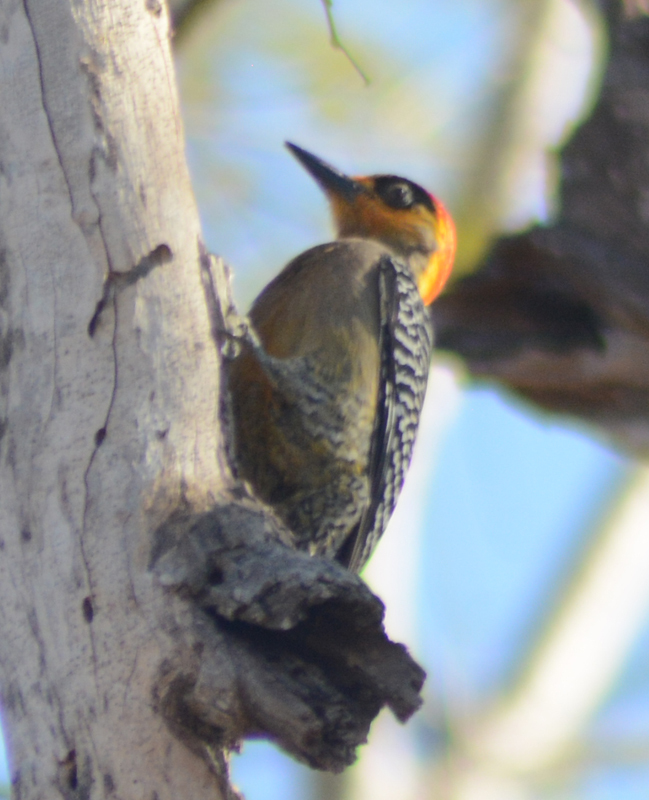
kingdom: Animalia
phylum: Chordata
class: Aves
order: Piciformes
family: Picidae
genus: Melanerpes
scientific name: Melanerpes chrysogenys
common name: Golden-cheeked woodpecker
